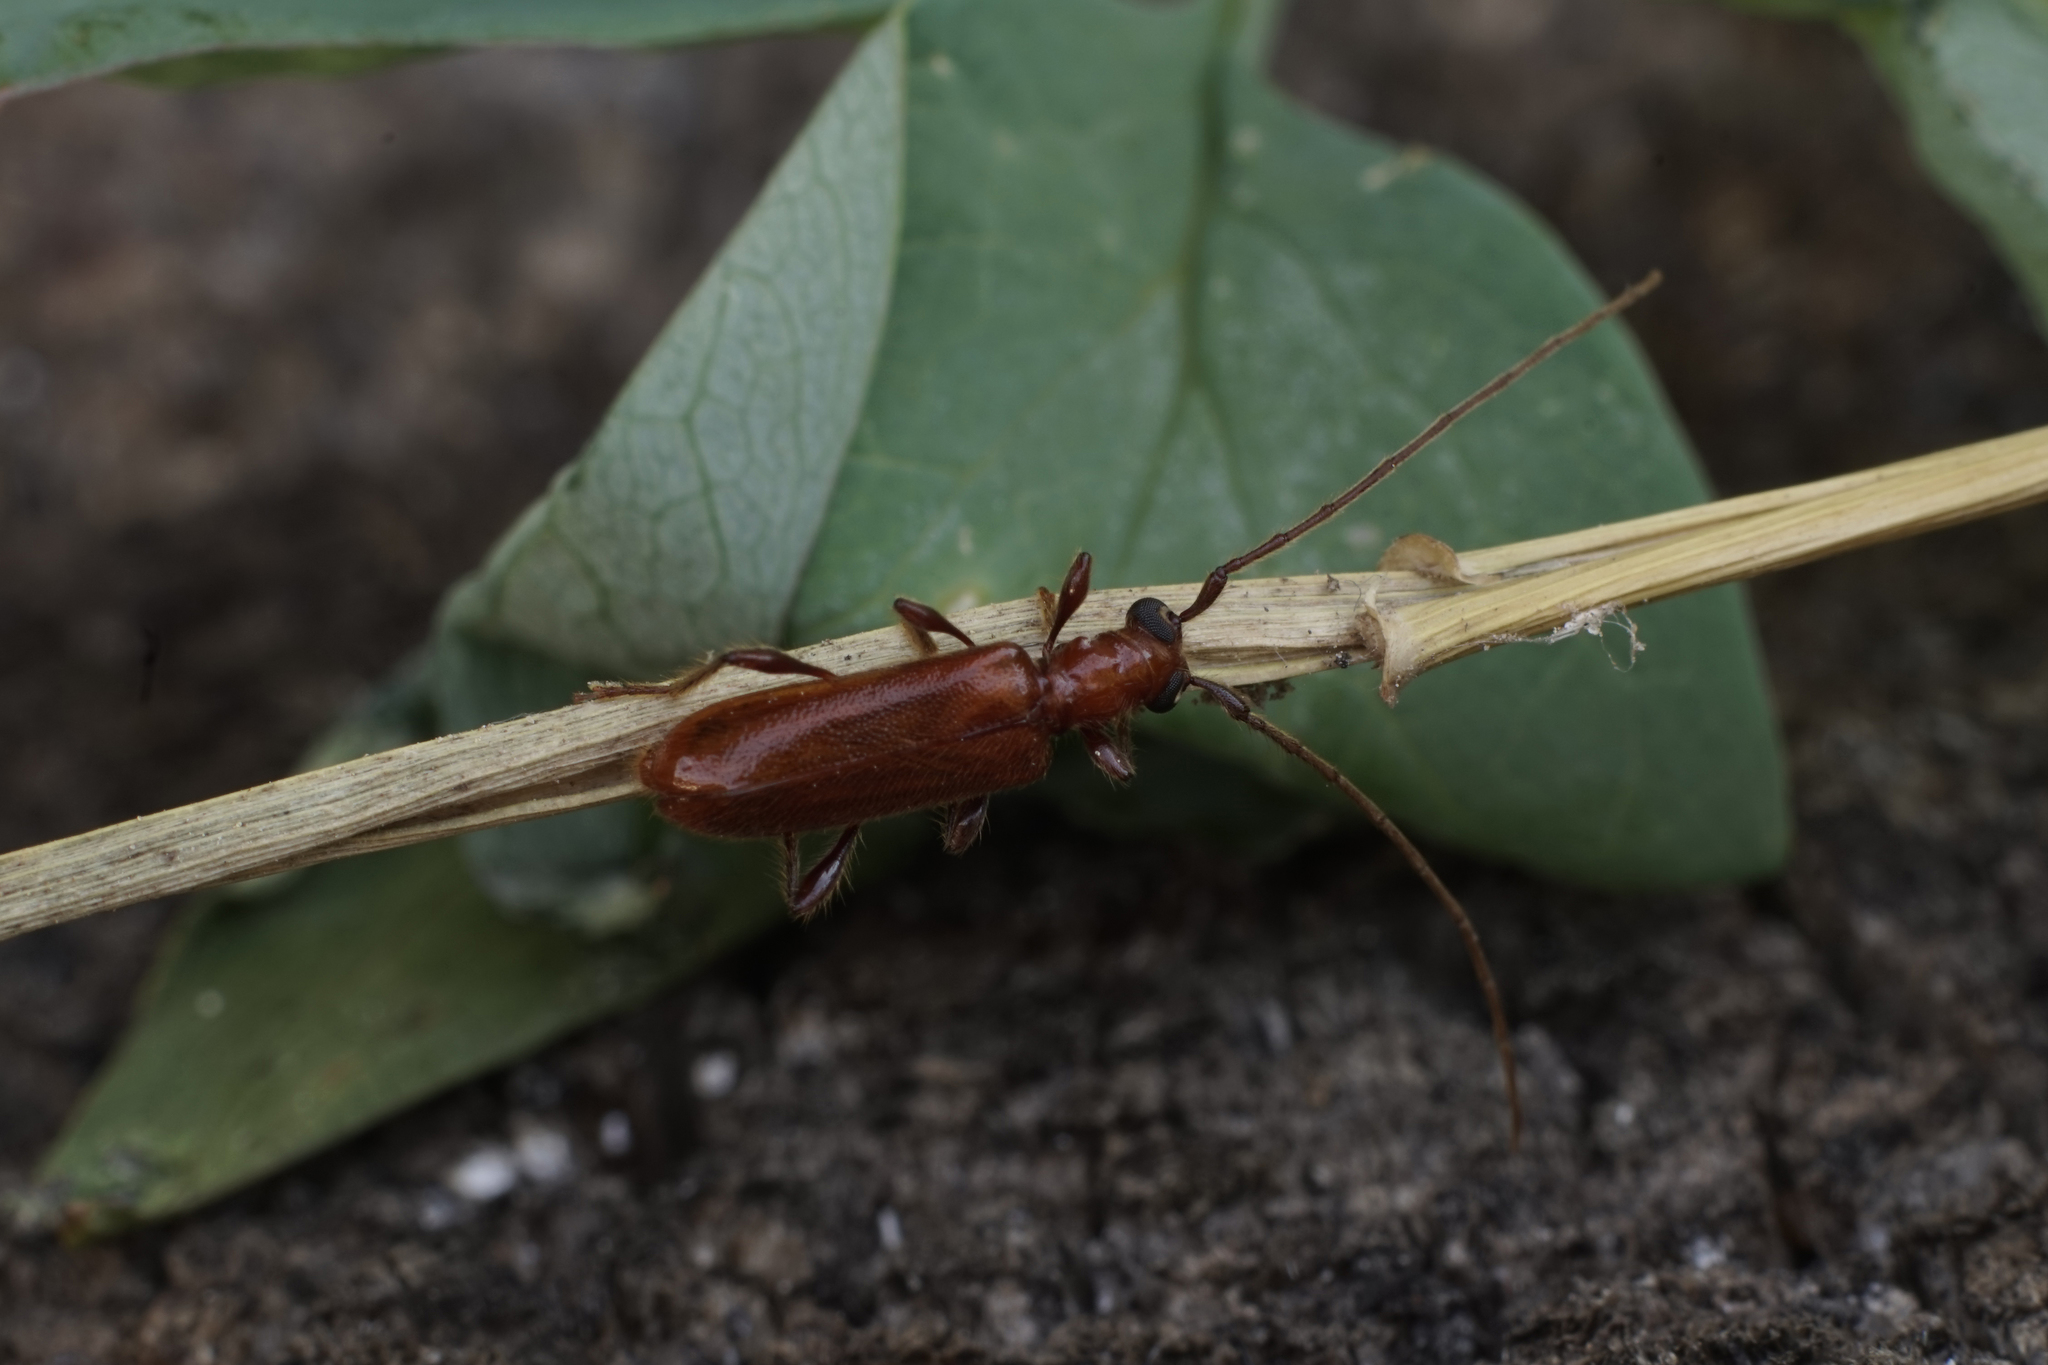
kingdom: Animalia
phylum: Arthropoda
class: Insecta
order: Coleoptera
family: Cerambycidae
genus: Obrium
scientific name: Obrium cantharinum
